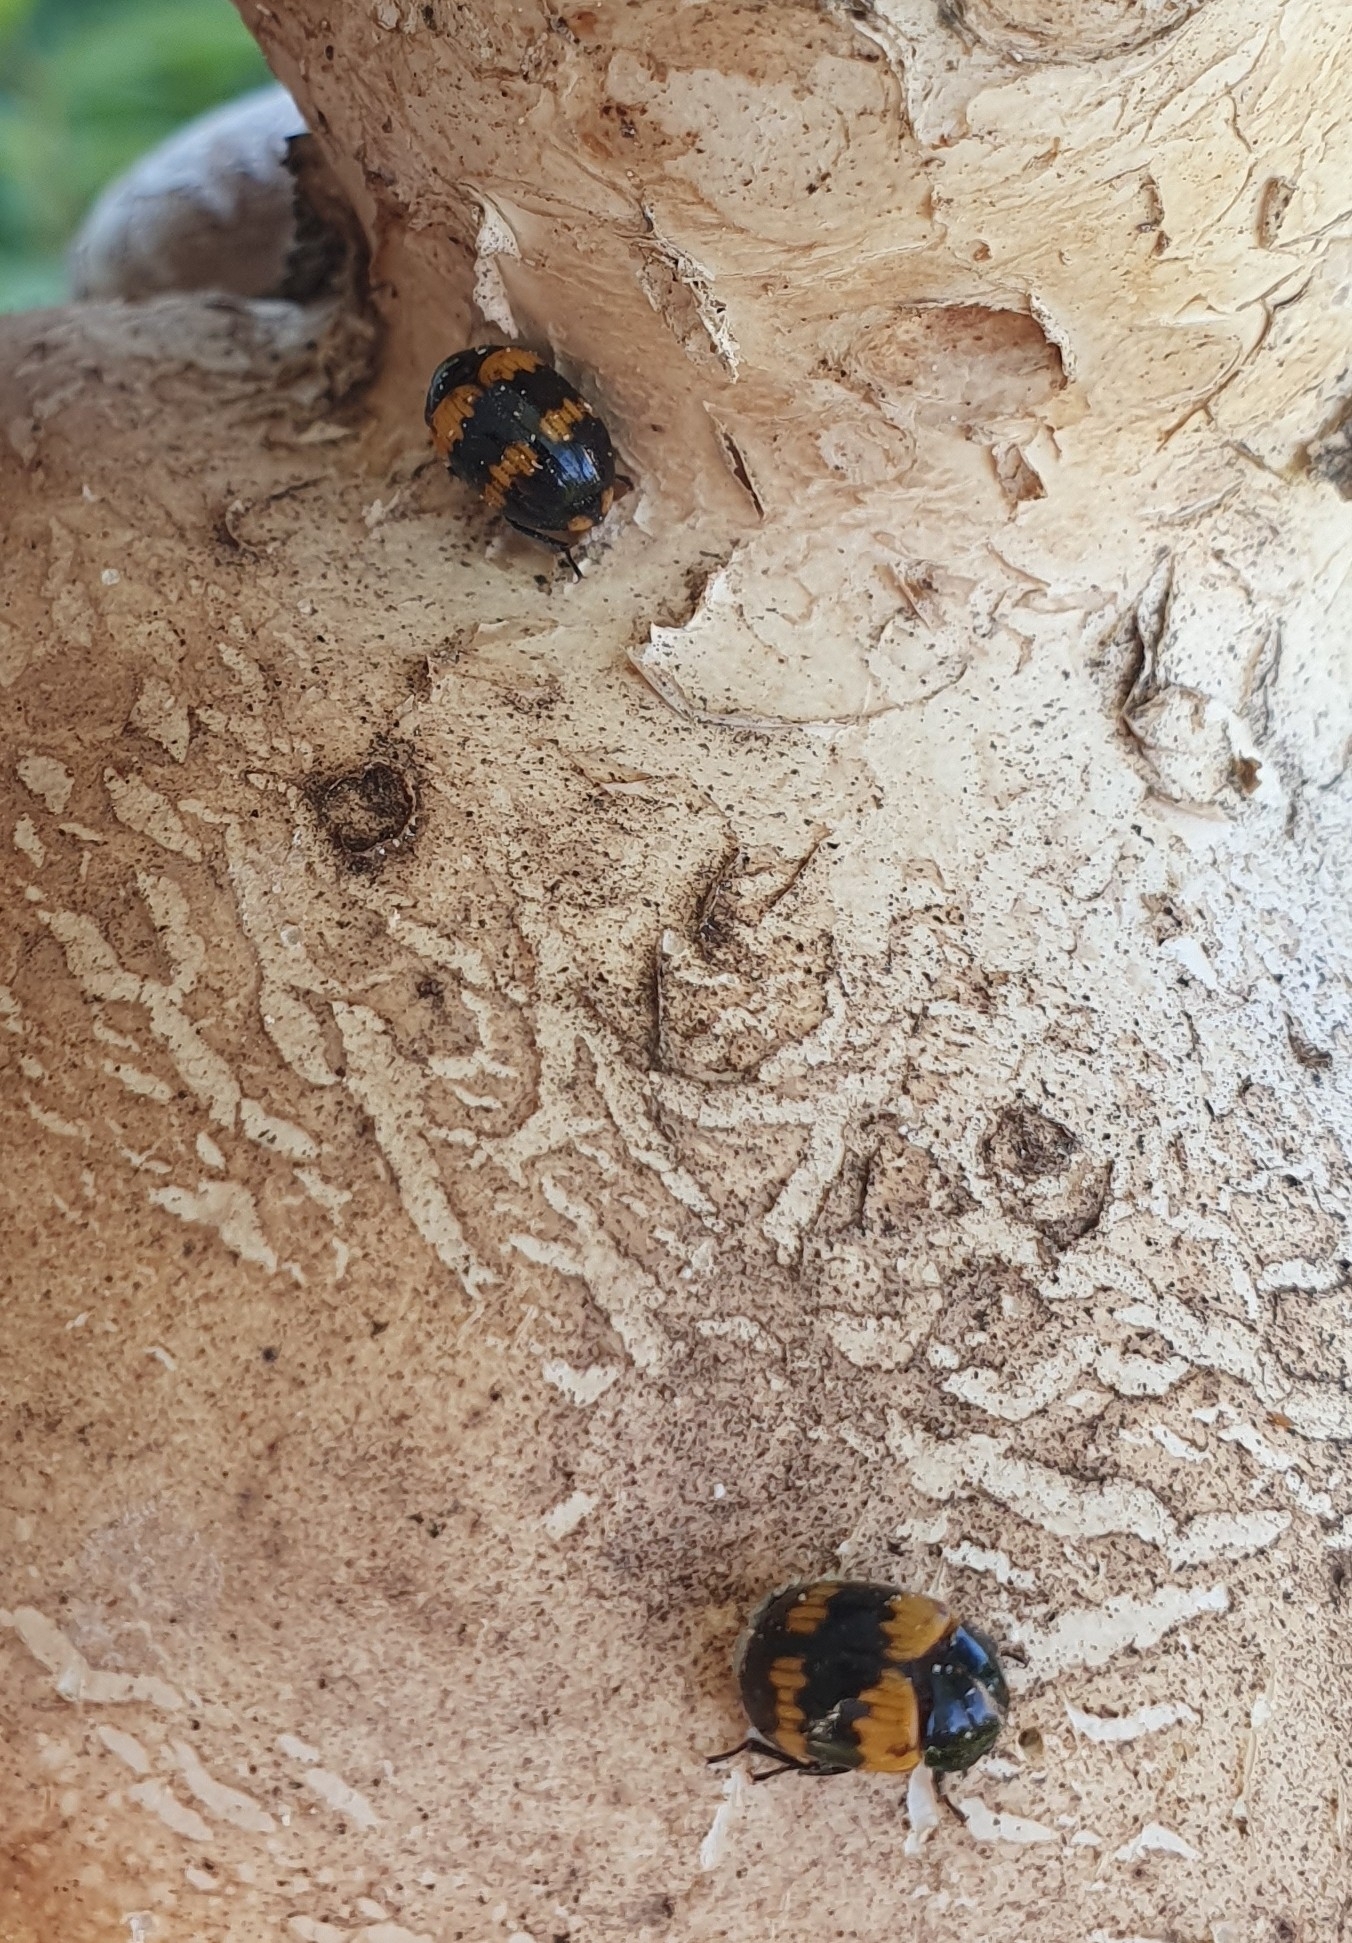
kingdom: Animalia
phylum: Arthropoda
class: Insecta
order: Coleoptera
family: Tenebrionidae
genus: Diaperis
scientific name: Diaperis boleti
